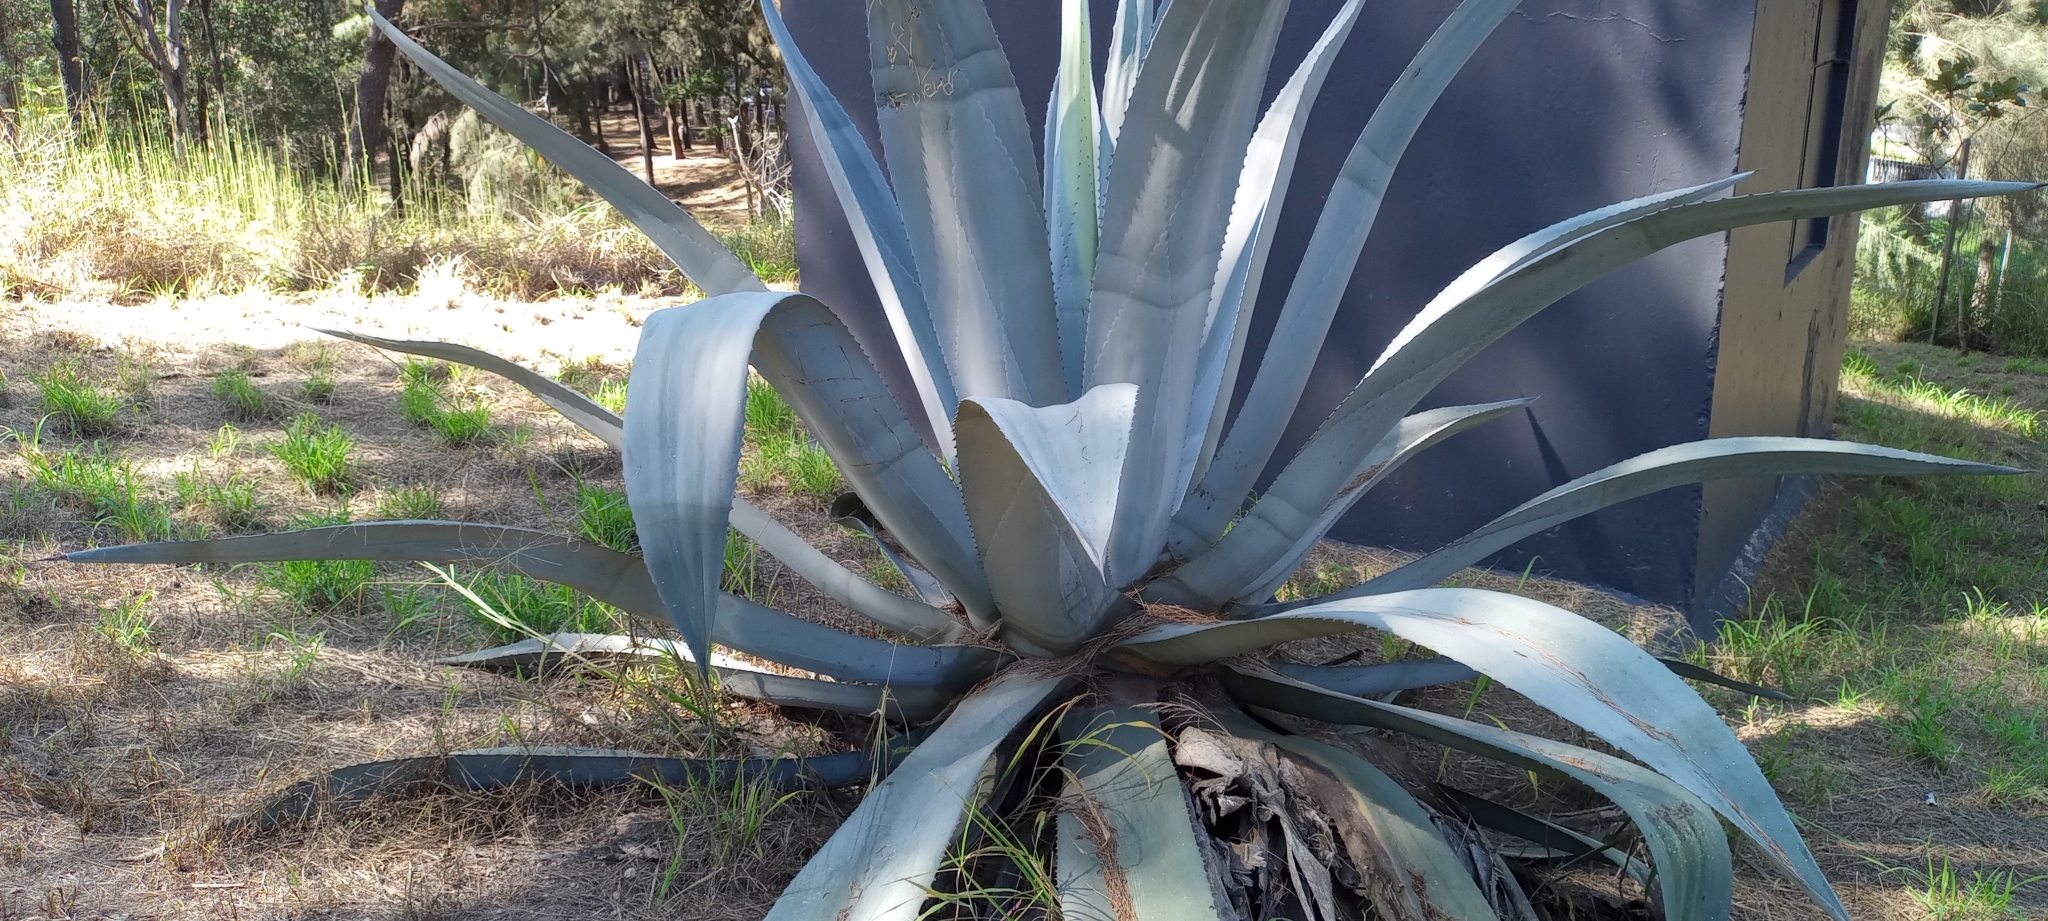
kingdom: Plantae
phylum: Tracheophyta
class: Liliopsida
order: Asparagales
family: Asparagaceae
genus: Agave
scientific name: Agave americana
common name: Centuryplant
